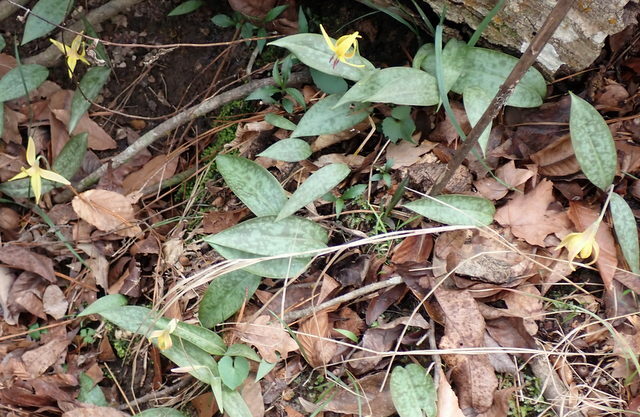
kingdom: Plantae
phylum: Tracheophyta
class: Liliopsida
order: Liliales
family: Liliaceae
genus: Erythronium
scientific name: Erythronium umbilicatum
